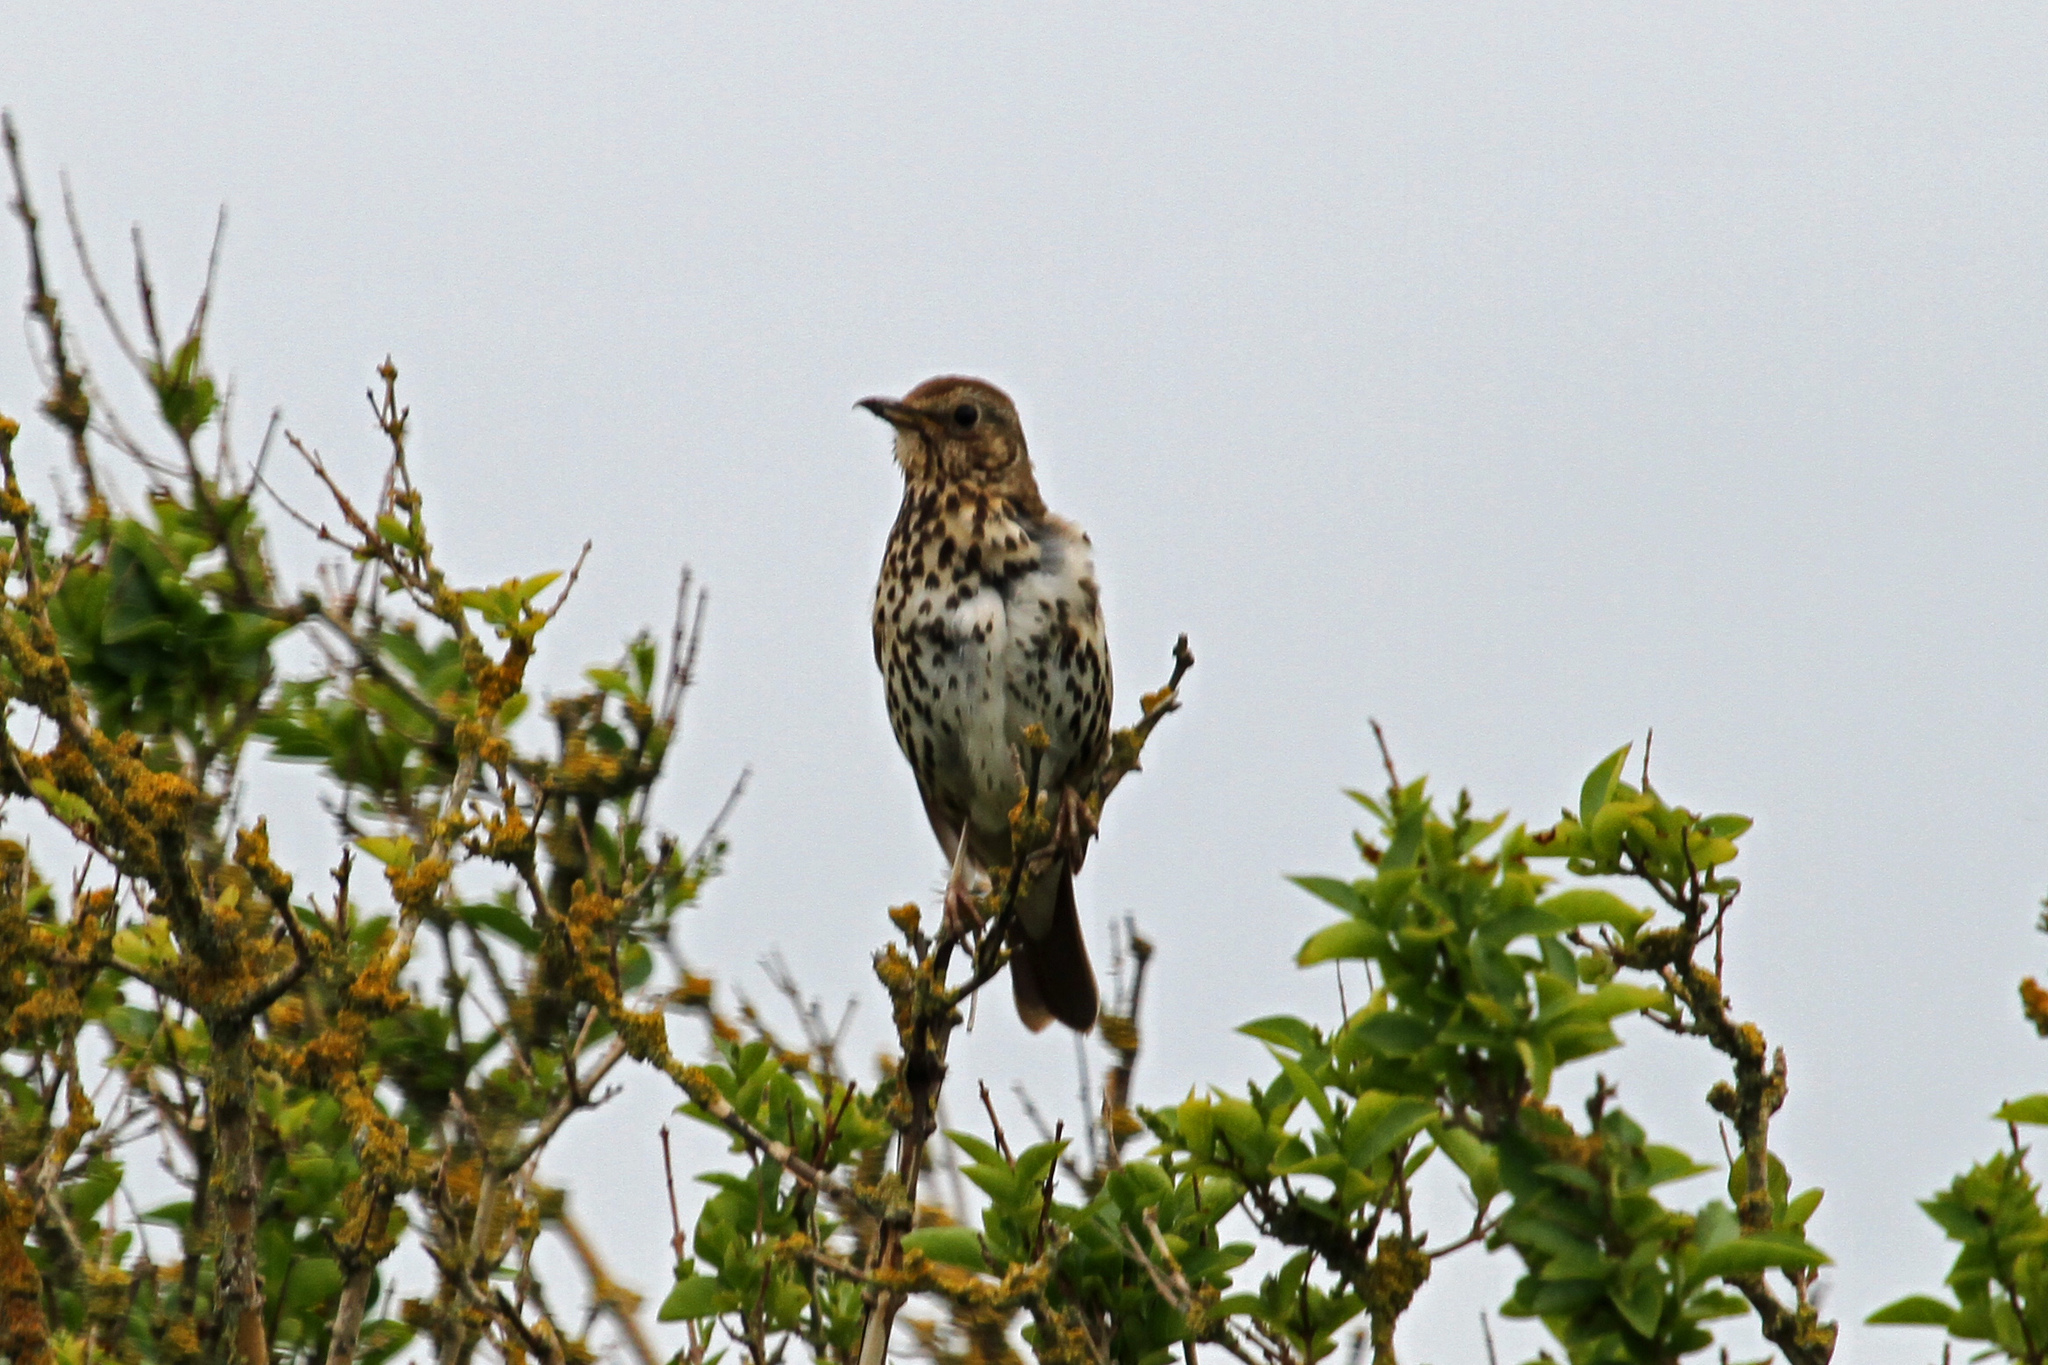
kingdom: Animalia
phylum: Chordata
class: Aves
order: Passeriformes
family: Turdidae
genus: Turdus
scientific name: Turdus philomelos
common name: Song thrush
